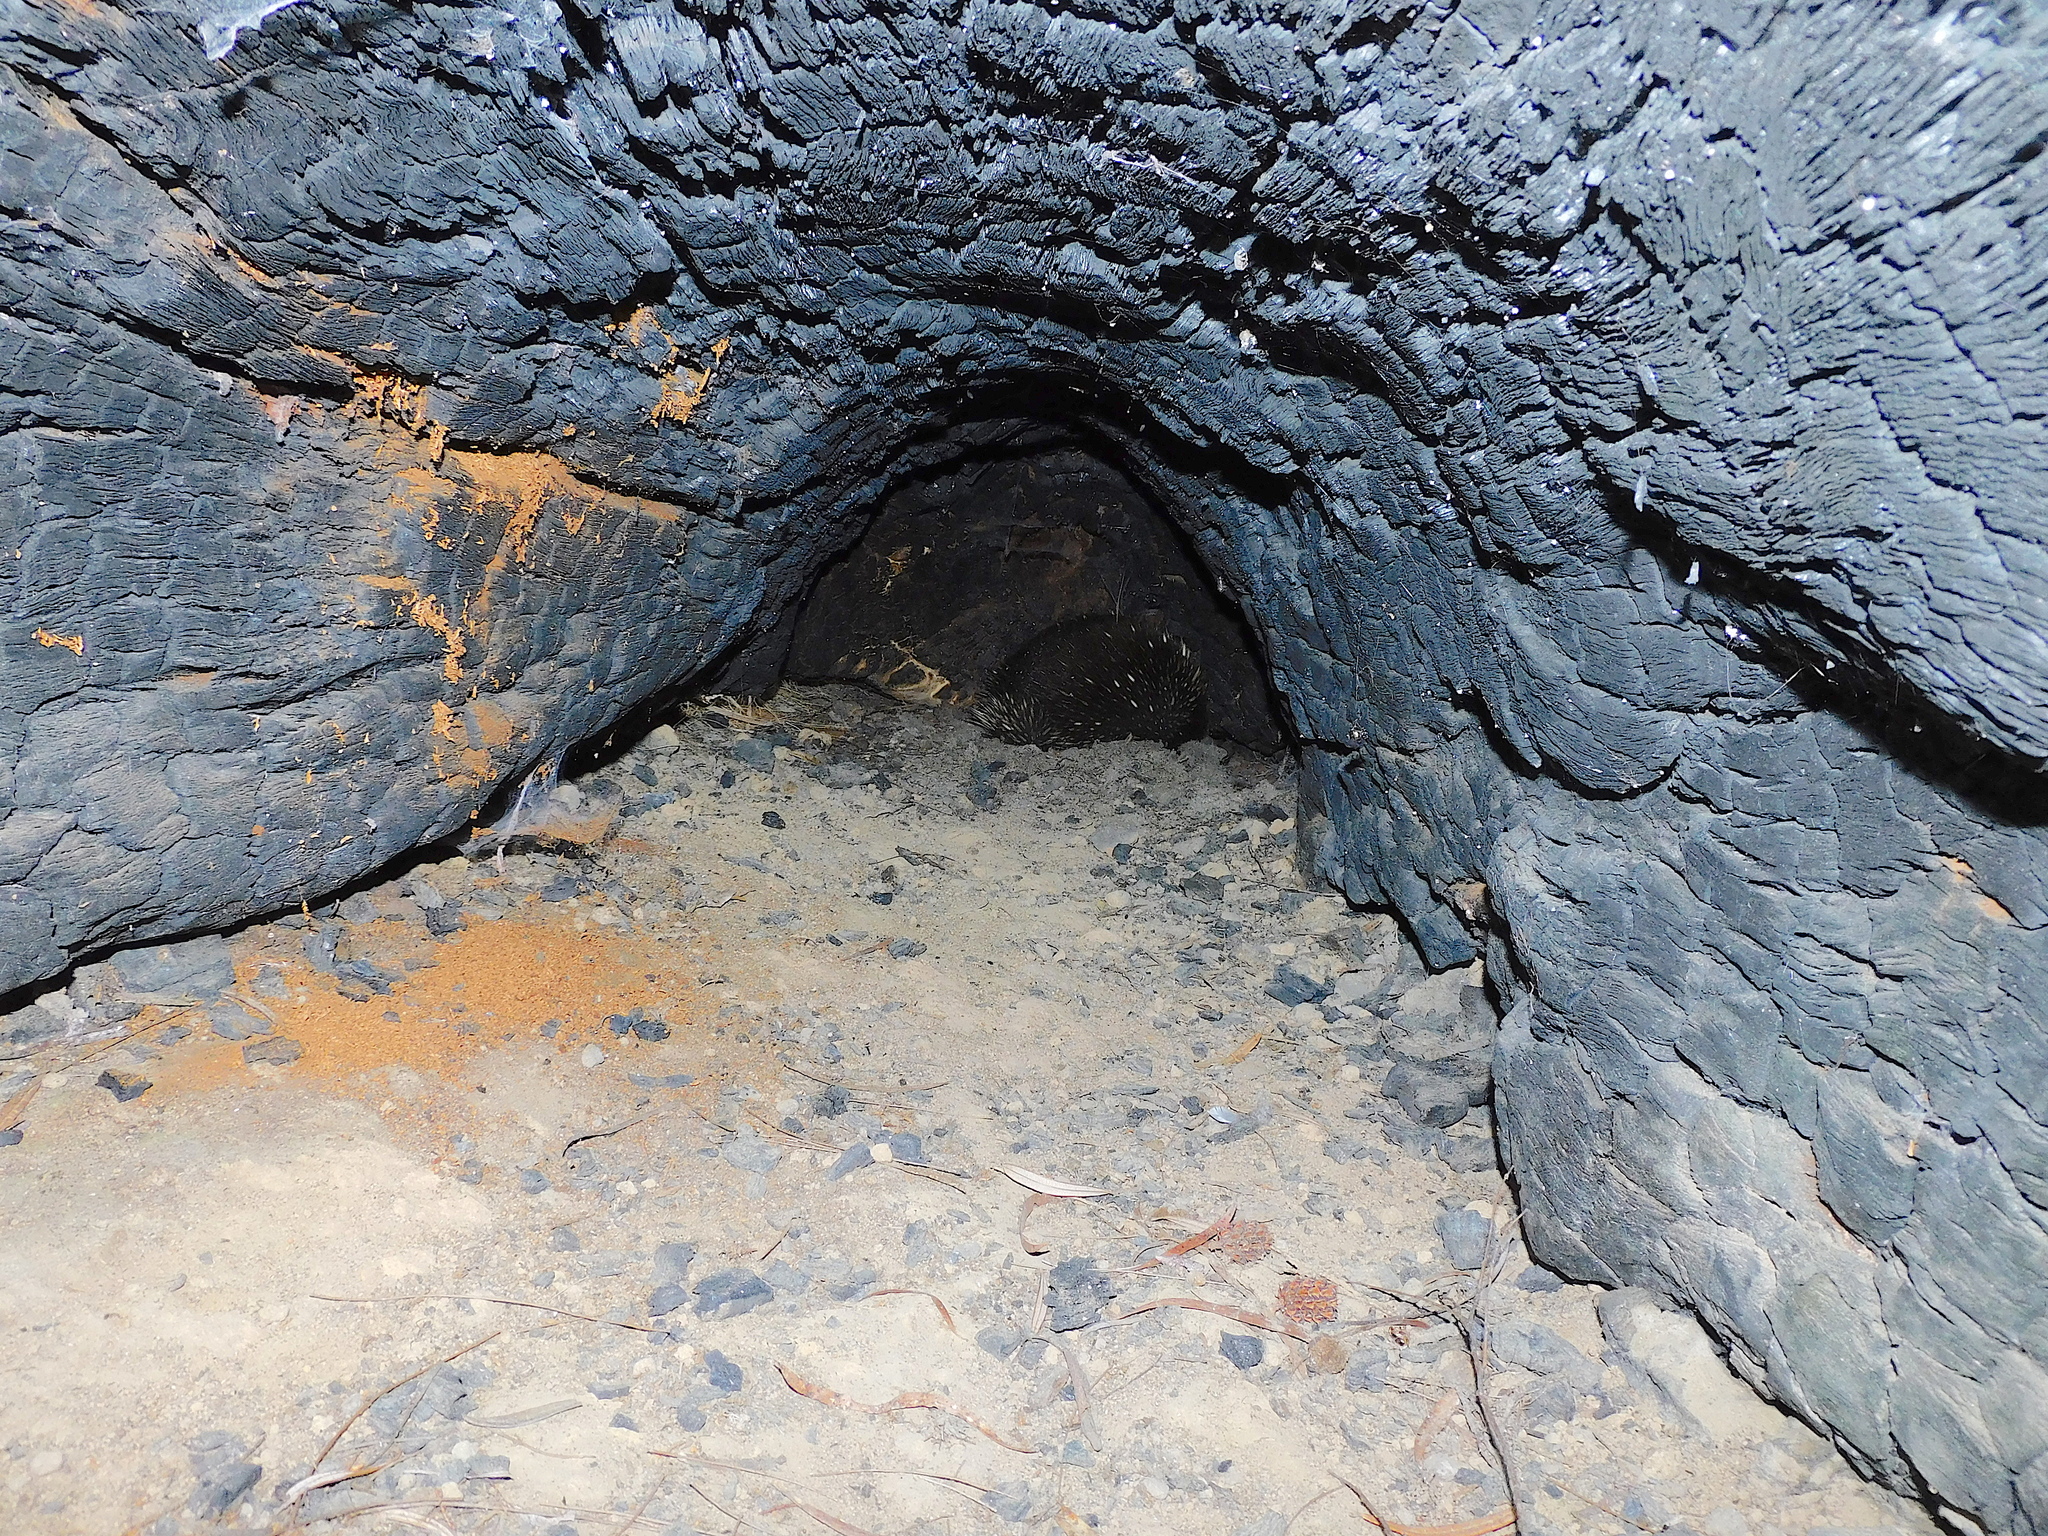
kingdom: Animalia
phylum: Chordata
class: Mammalia
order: Monotremata
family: Tachyglossidae
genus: Tachyglossus
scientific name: Tachyglossus aculeatus
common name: Short-beaked echidna
